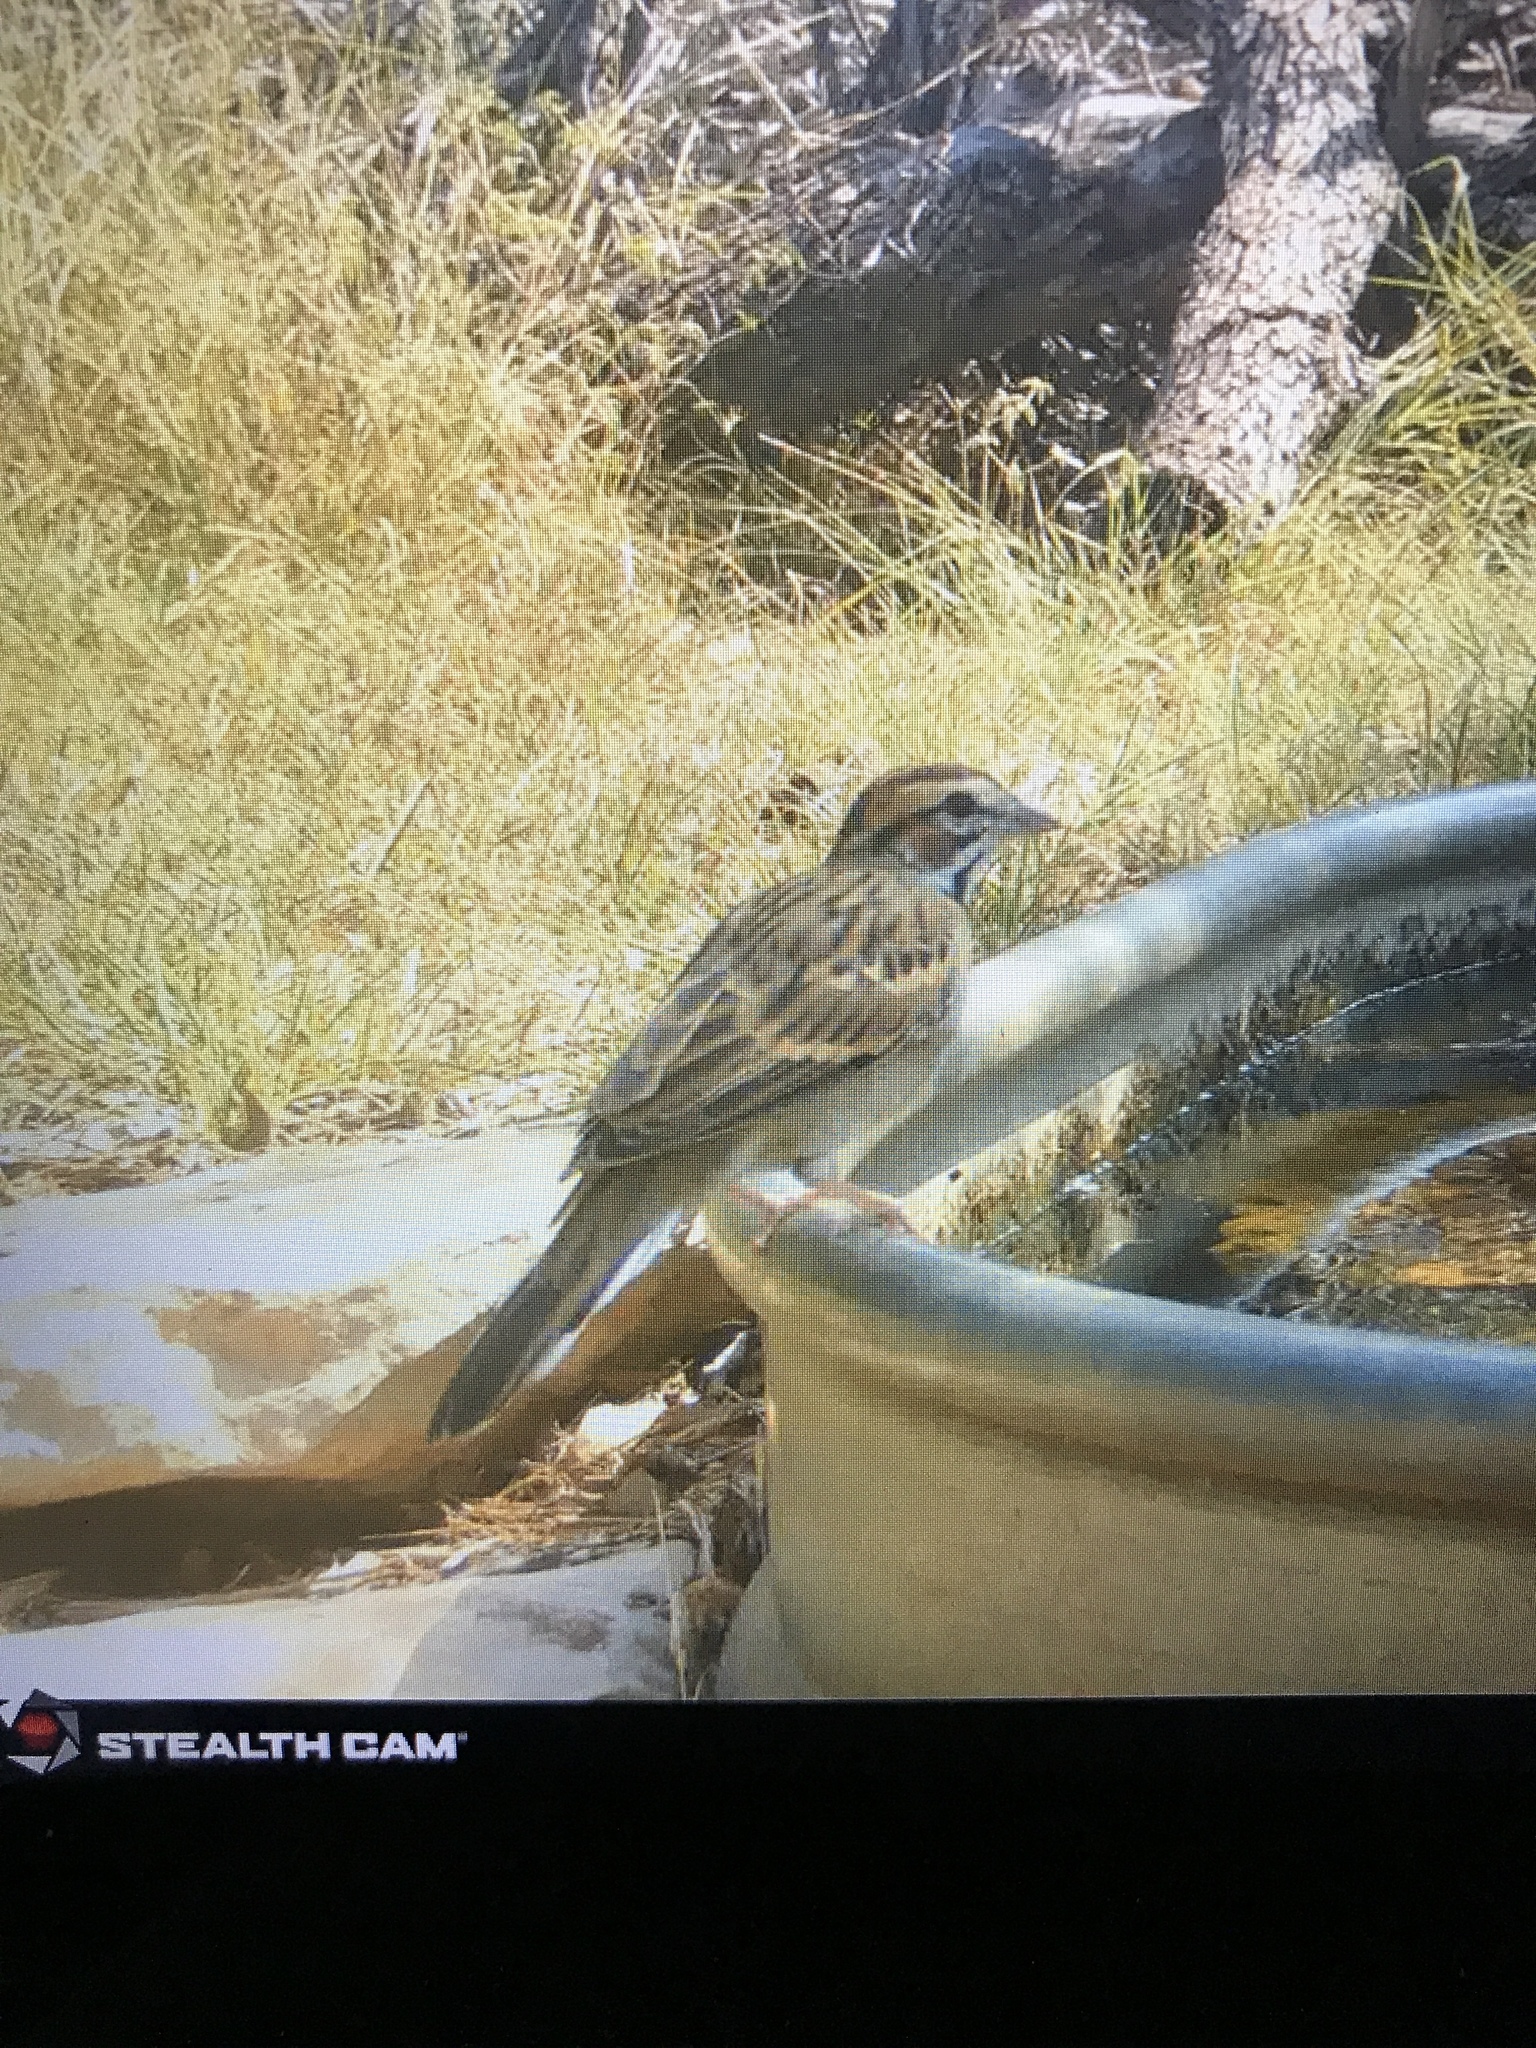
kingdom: Animalia
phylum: Chordata
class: Aves
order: Passeriformes
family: Passerellidae
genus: Chondestes
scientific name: Chondestes grammacus
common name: Lark sparrow
